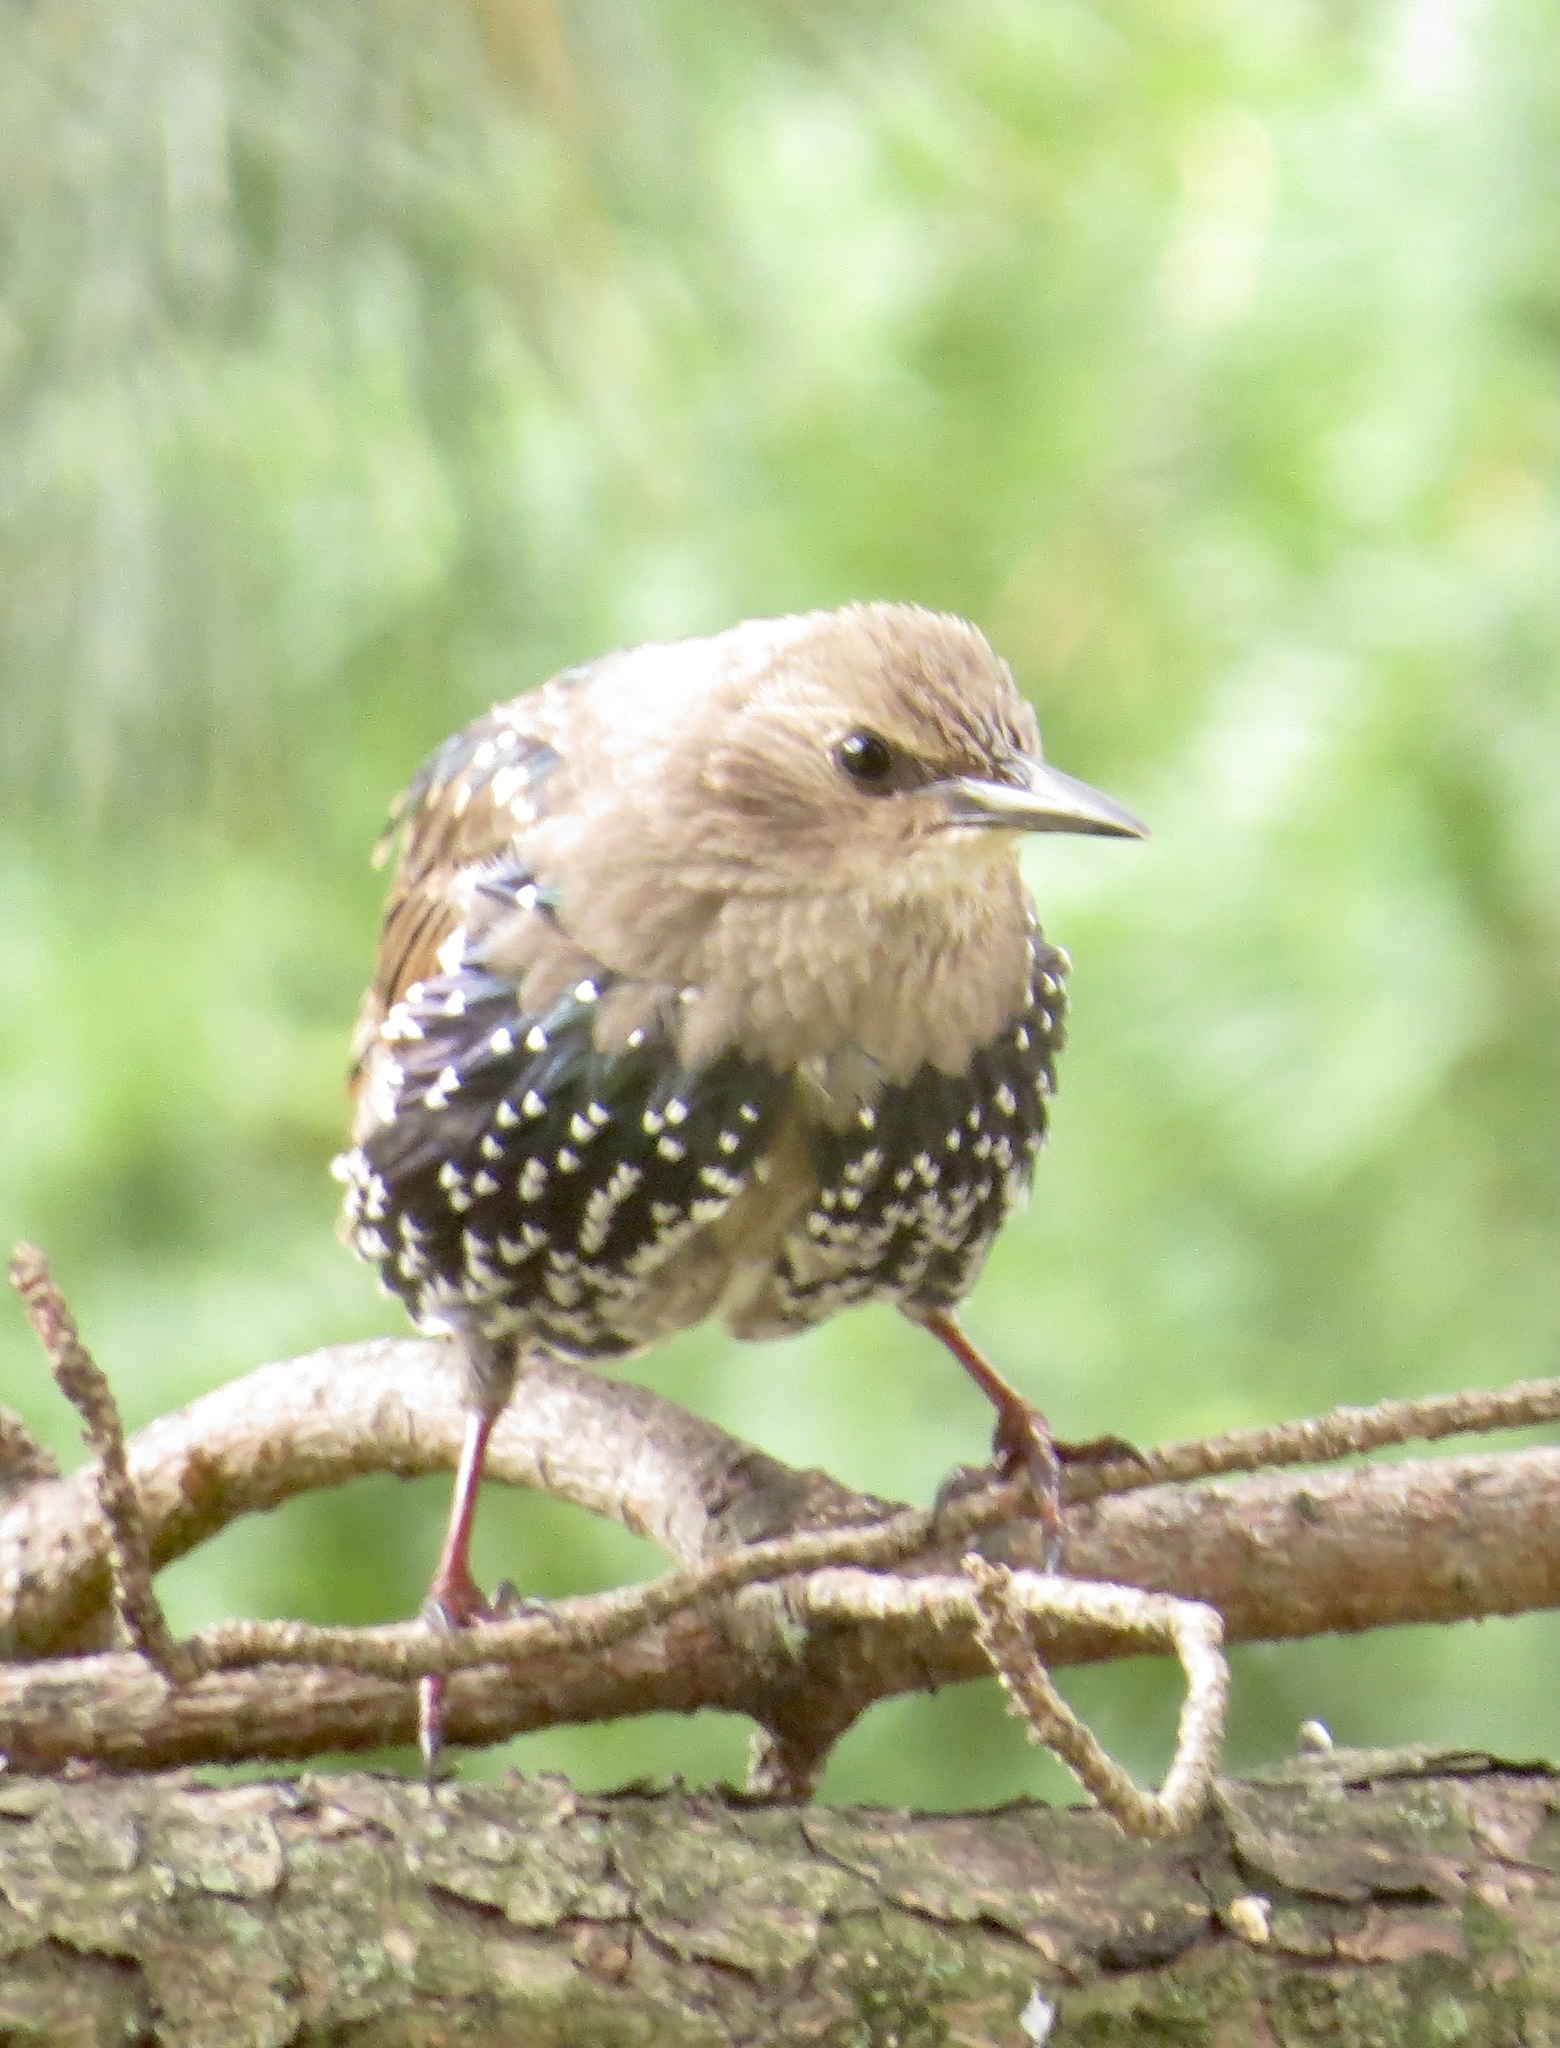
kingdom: Animalia
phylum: Chordata
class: Aves
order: Passeriformes
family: Sturnidae
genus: Sturnus
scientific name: Sturnus vulgaris
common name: Common starling
